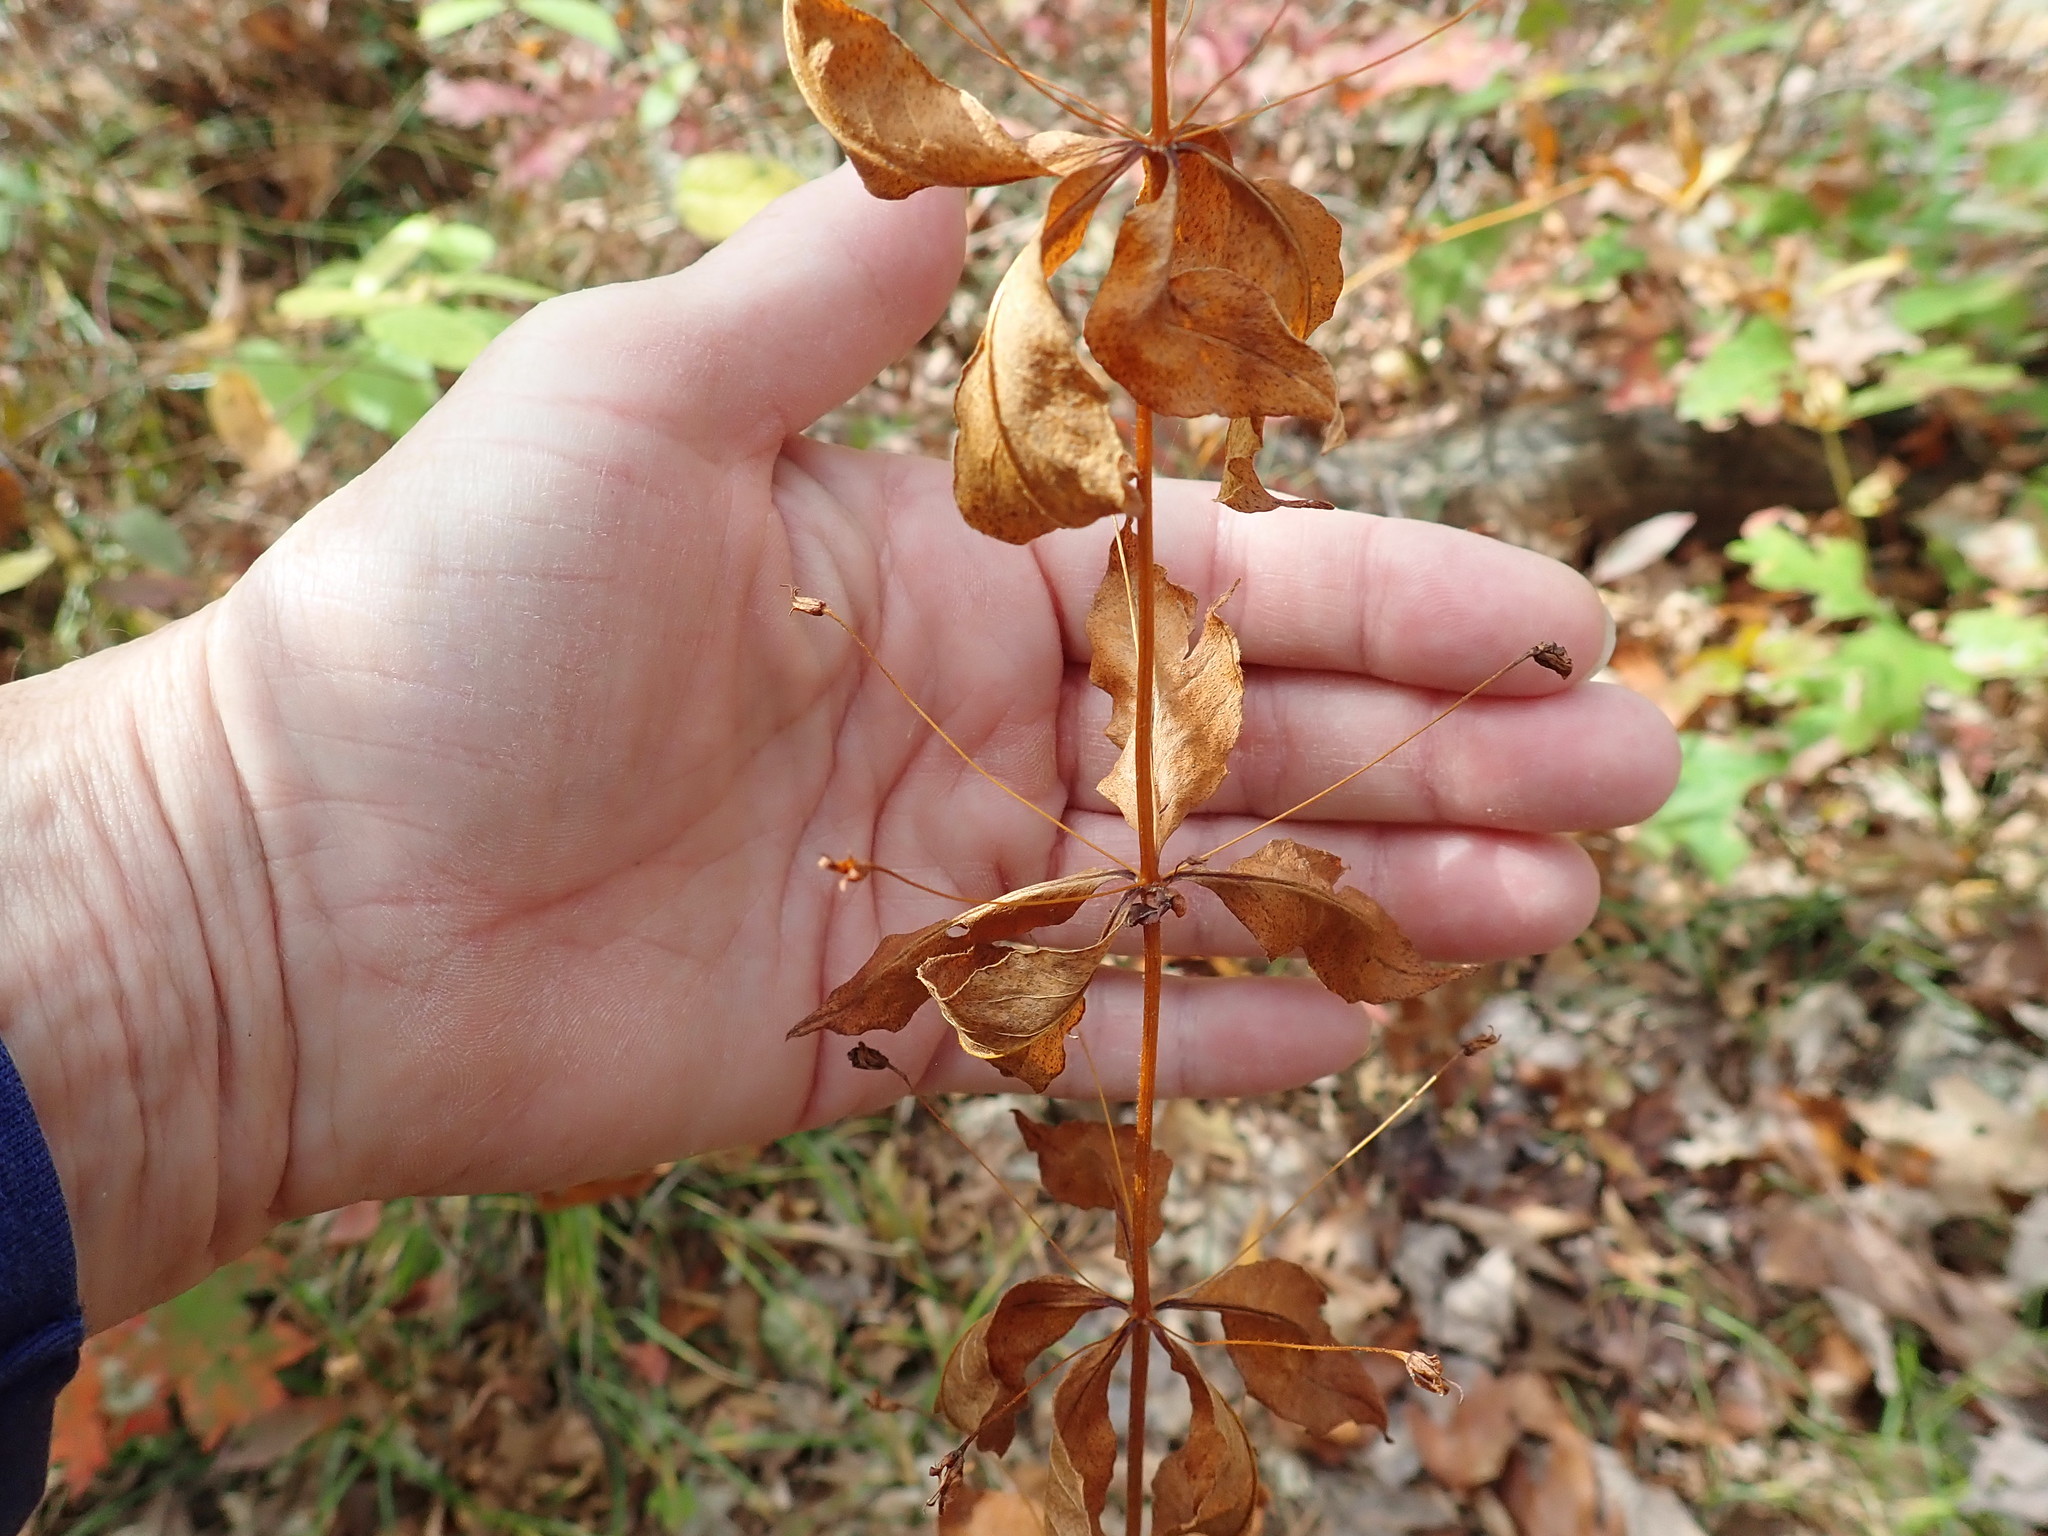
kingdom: Plantae
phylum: Tracheophyta
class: Magnoliopsida
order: Ericales
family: Primulaceae
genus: Lysimachia
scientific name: Lysimachia quadrifolia
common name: Whorled loosestrife
